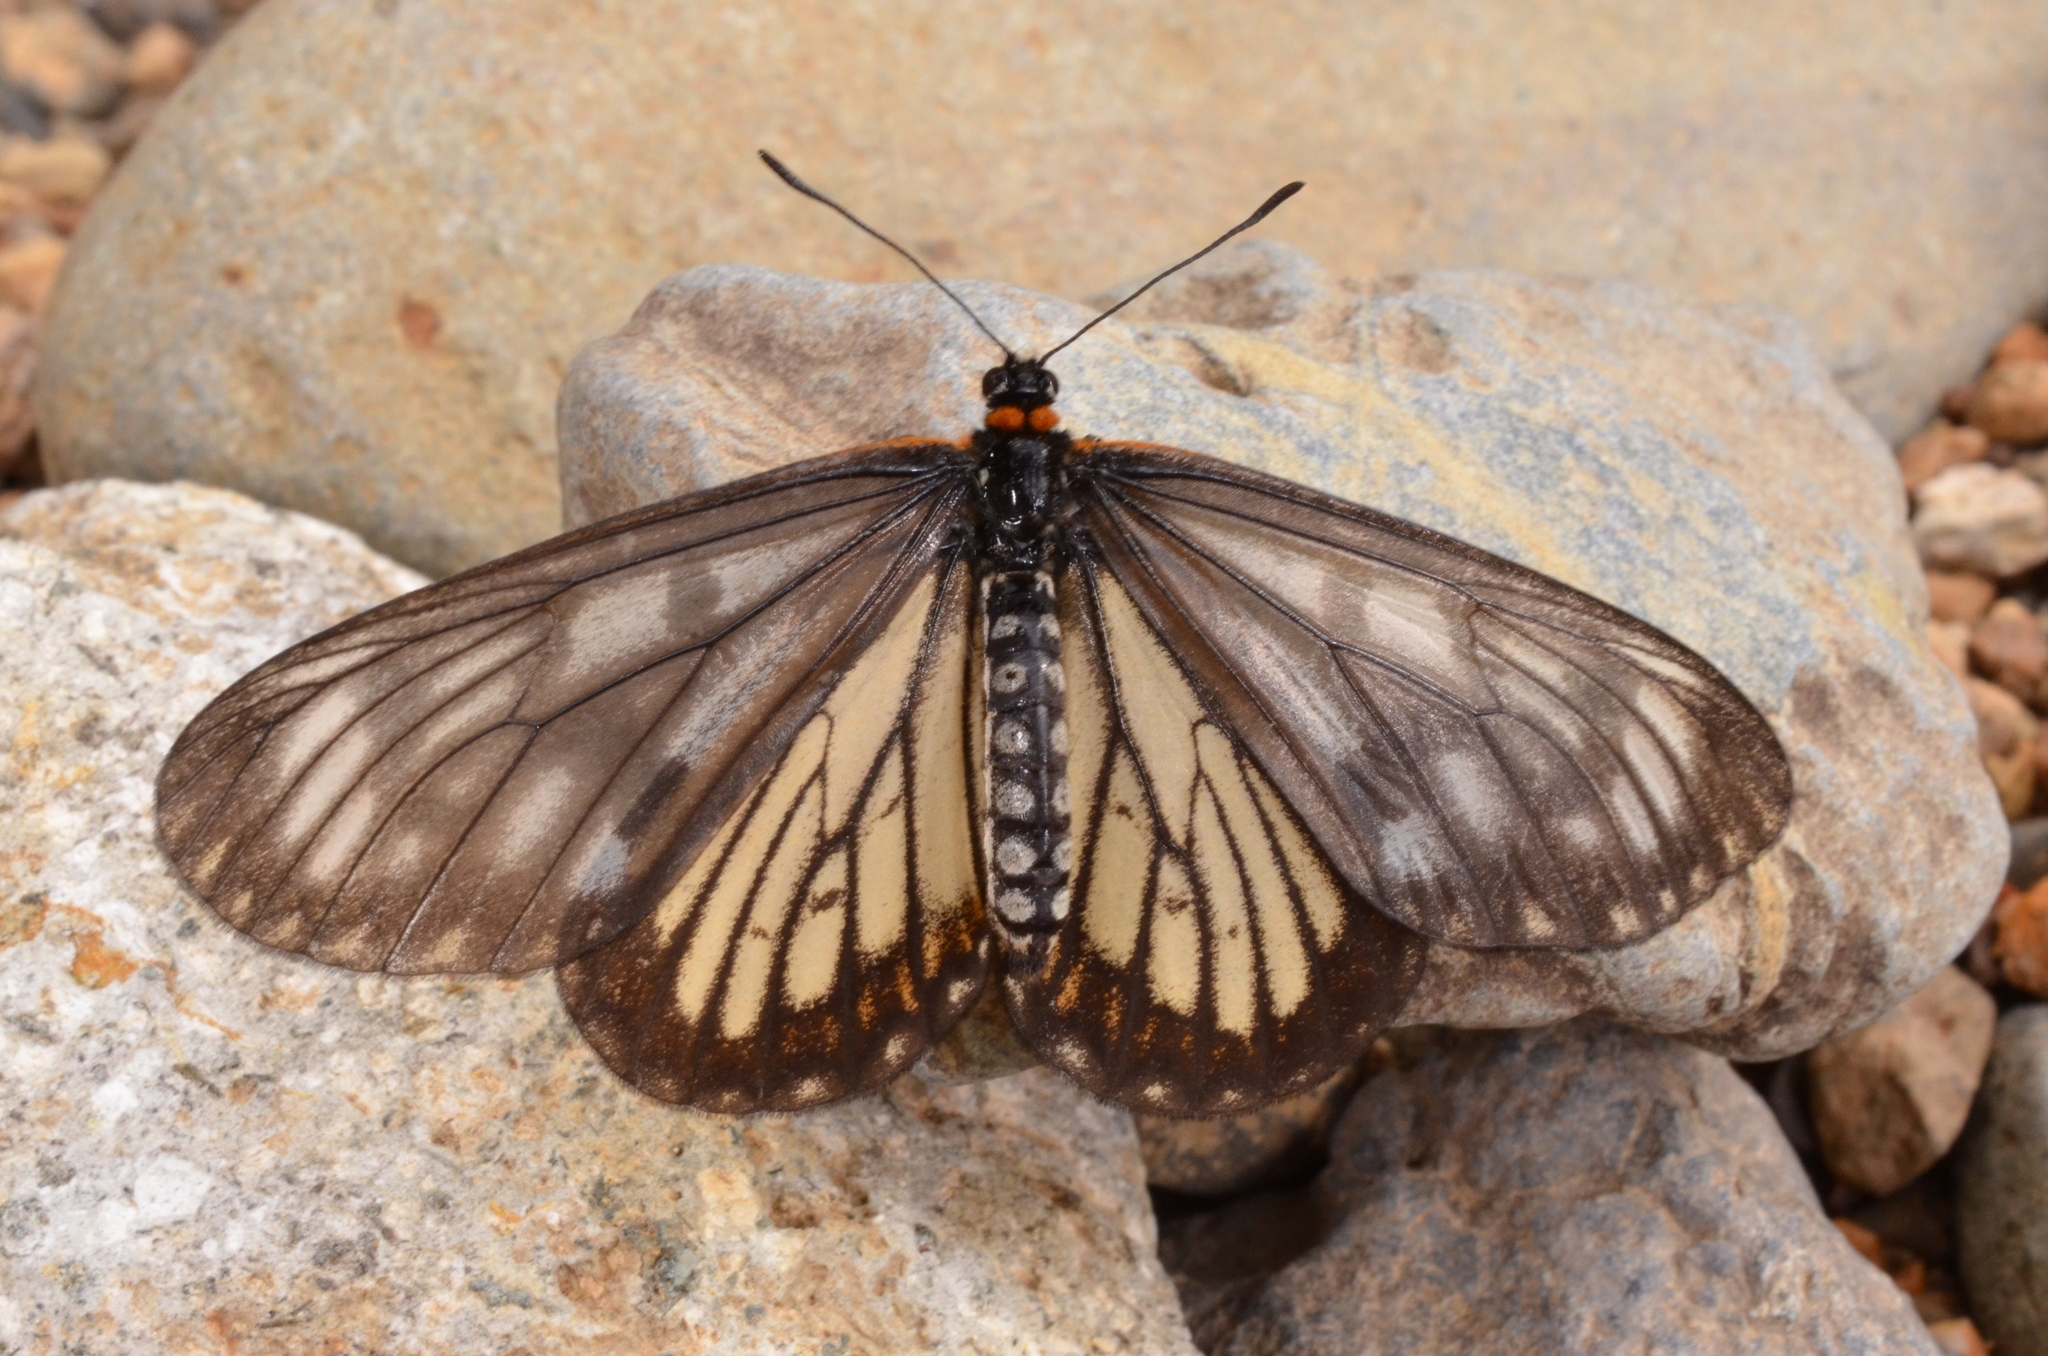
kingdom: Animalia
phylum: Arthropoda
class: Insecta
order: Lepidoptera
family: Nymphalidae
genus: Acraea
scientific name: Acraea Telchinia issoria
